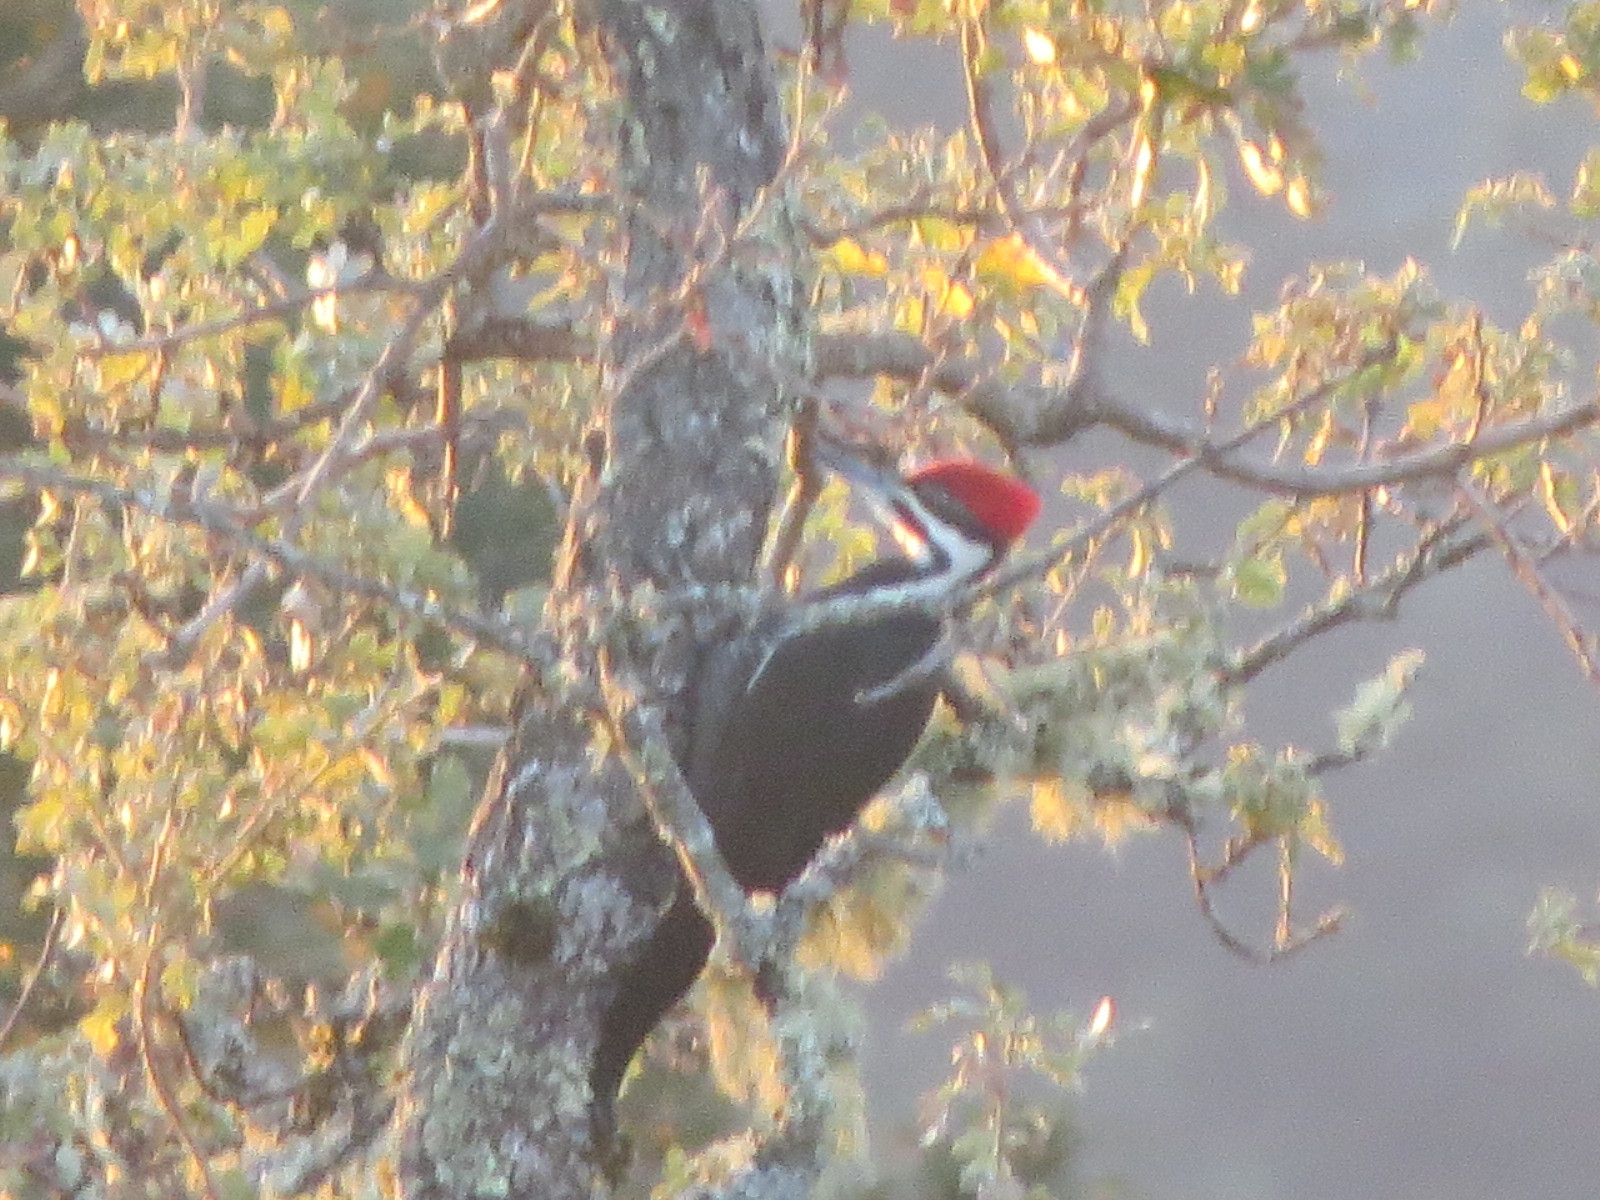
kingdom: Animalia
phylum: Chordata
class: Aves
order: Piciformes
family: Picidae
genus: Dryocopus
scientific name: Dryocopus pileatus
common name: Pileated woodpecker
